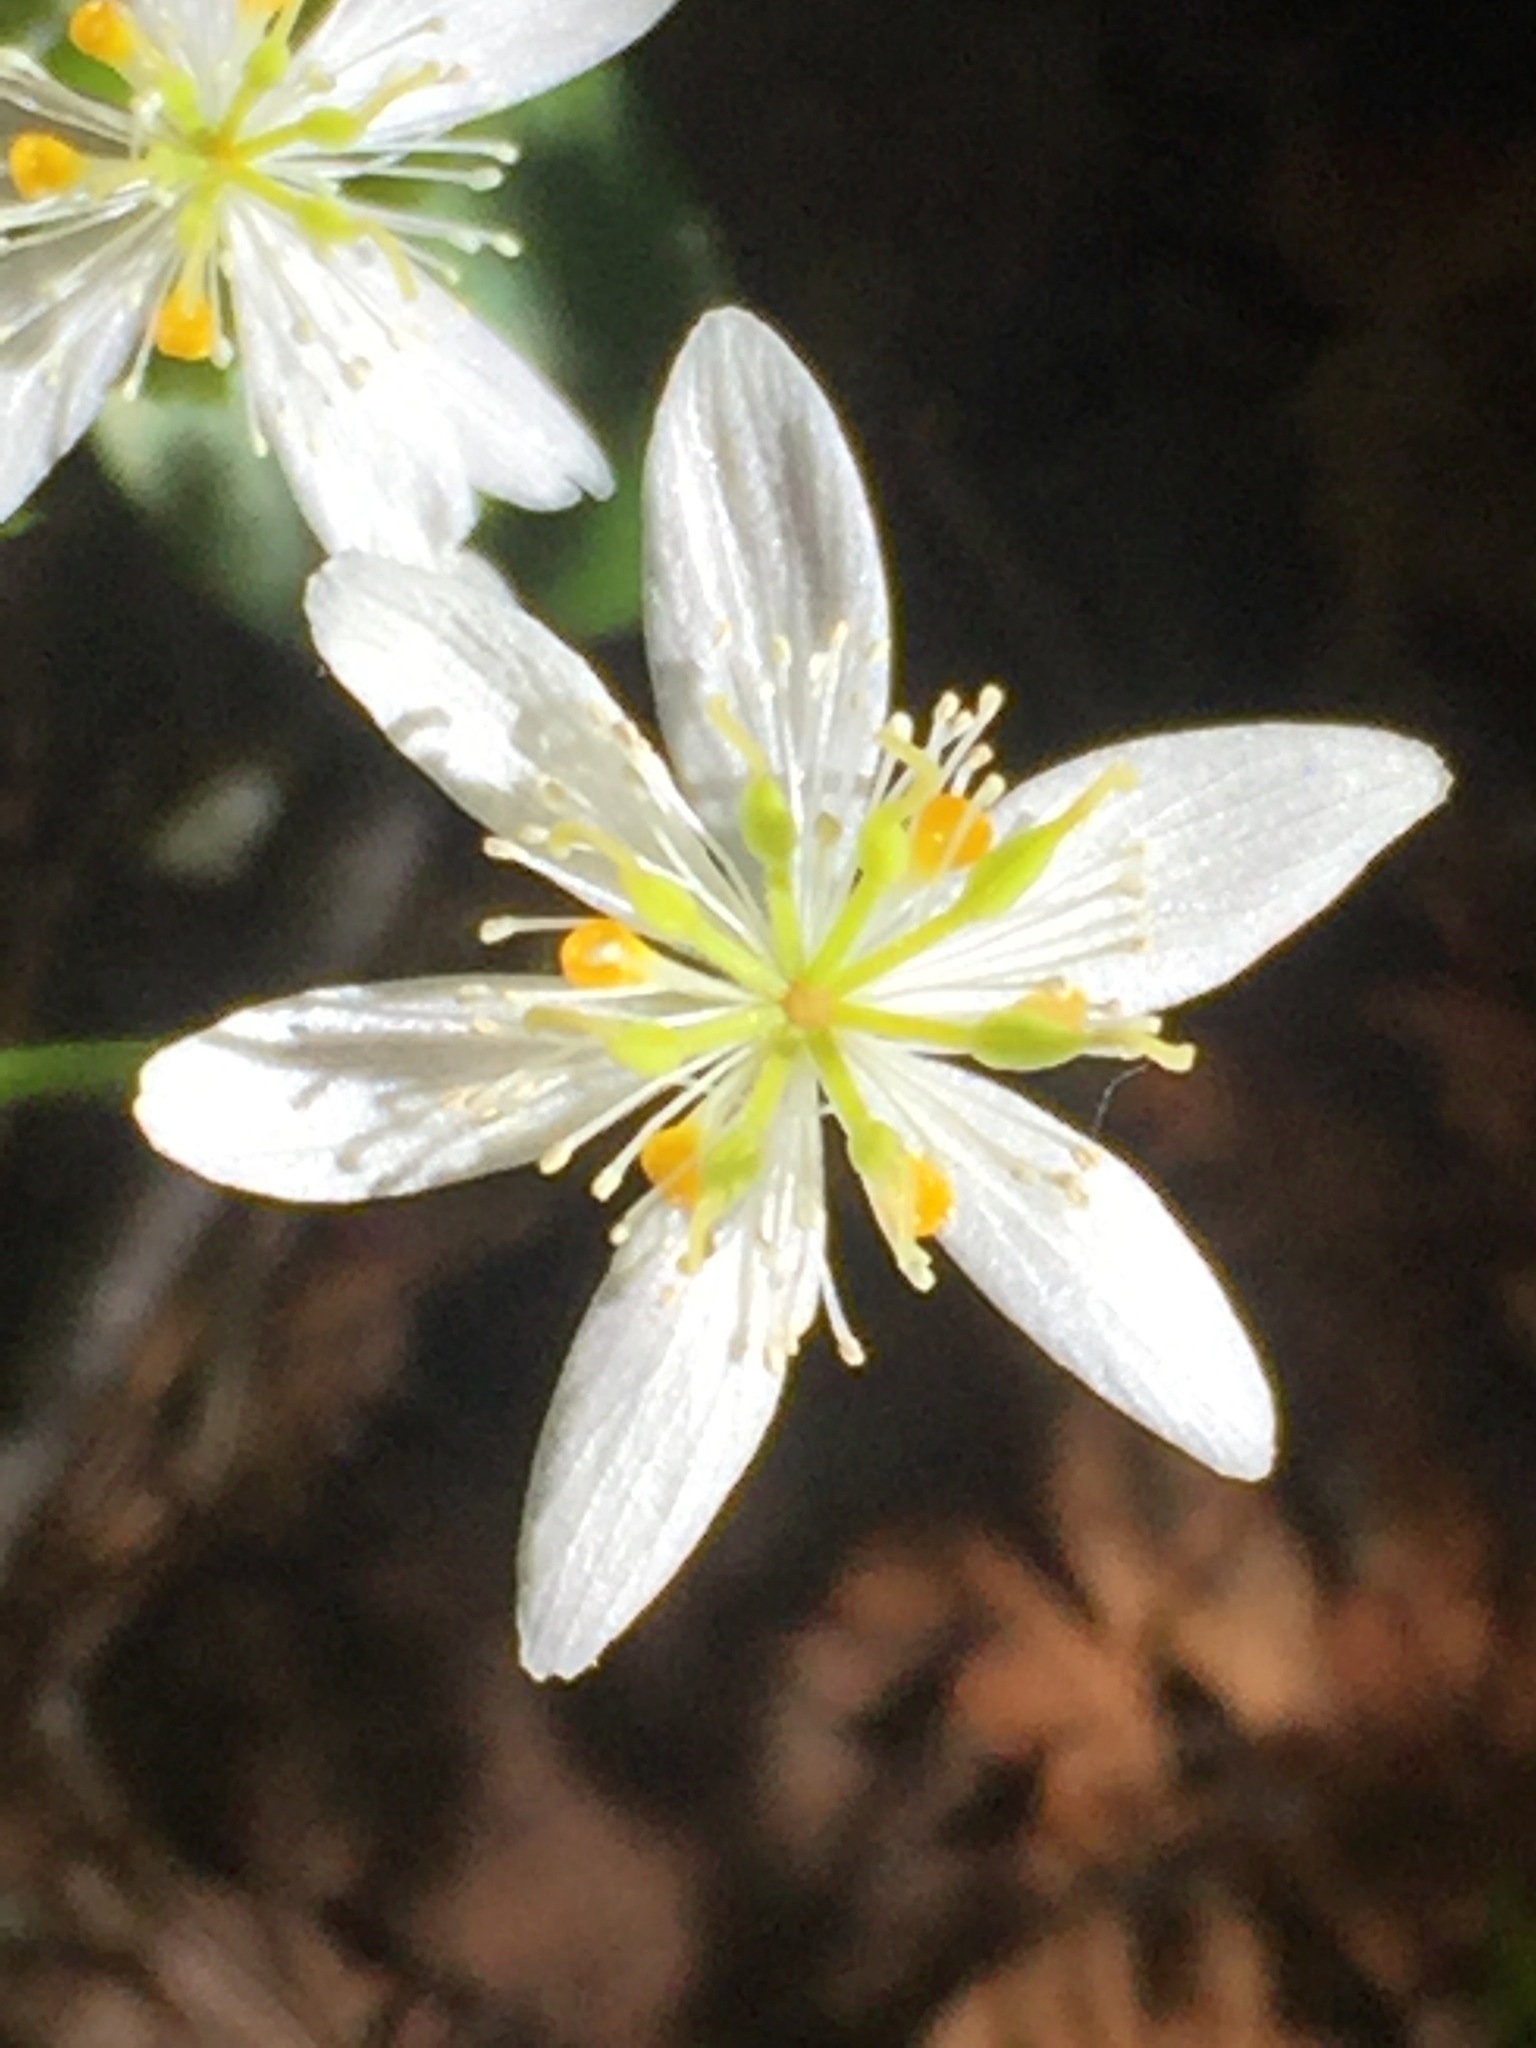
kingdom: Plantae
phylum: Tracheophyta
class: Magnoliopsida
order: Ranunculales
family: Ranunculaceae
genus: Coptis
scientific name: Coptis trifolia
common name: Canker-root
